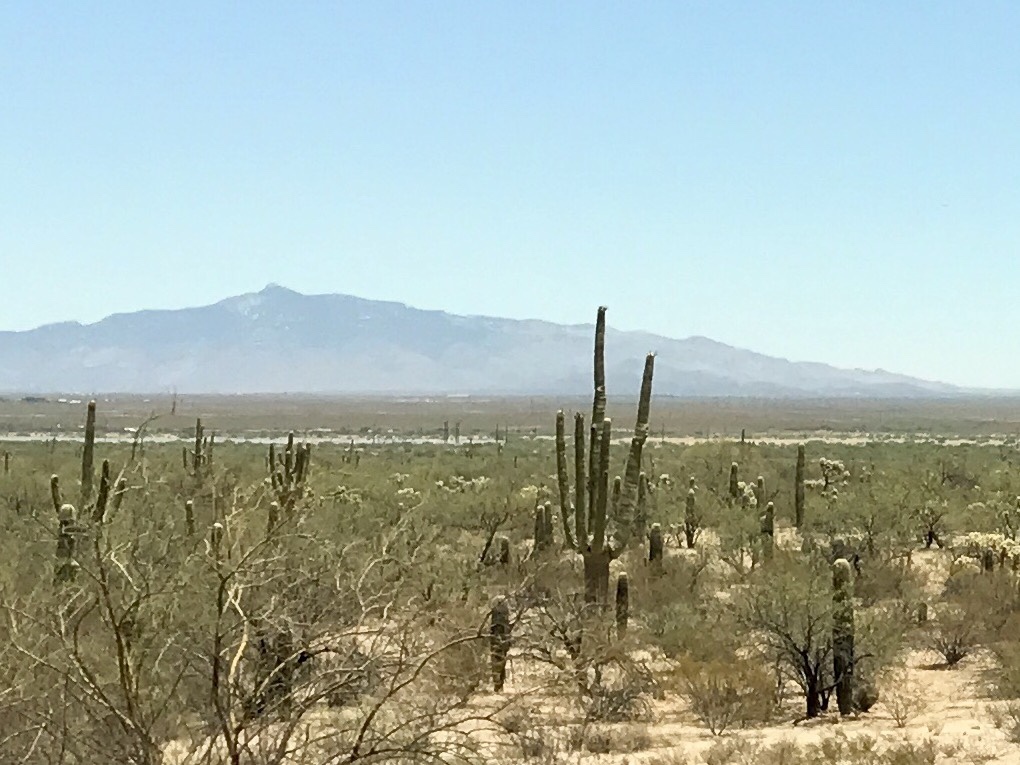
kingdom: Plantae
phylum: Tracheophyta
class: Magnoliopsida
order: Caryophyllales
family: Cactaceae
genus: Carnegiea
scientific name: Carnegiea gigantea
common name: Saguaro
